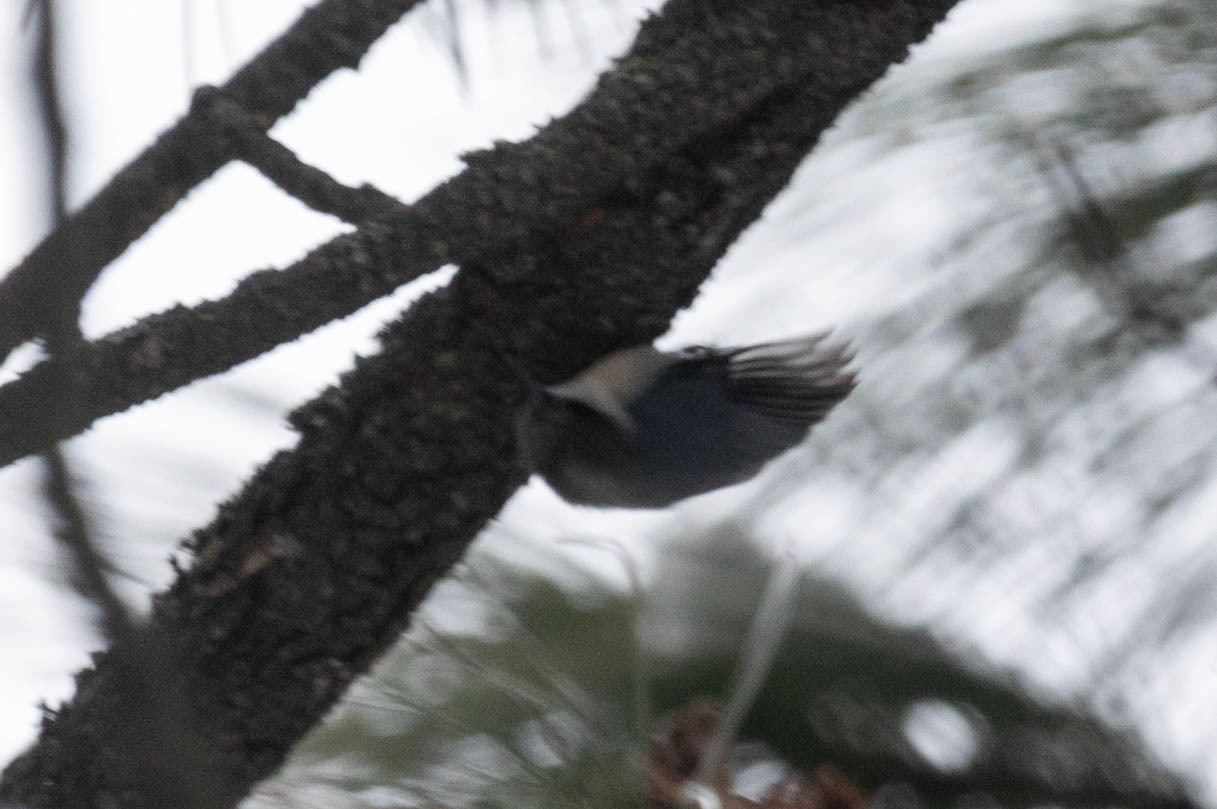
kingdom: Animalia
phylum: Chordata
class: Aves
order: Passeriformes
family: Sittidae
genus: Sitta
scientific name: Sitta pygmaea
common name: Pygmy nuthatch
